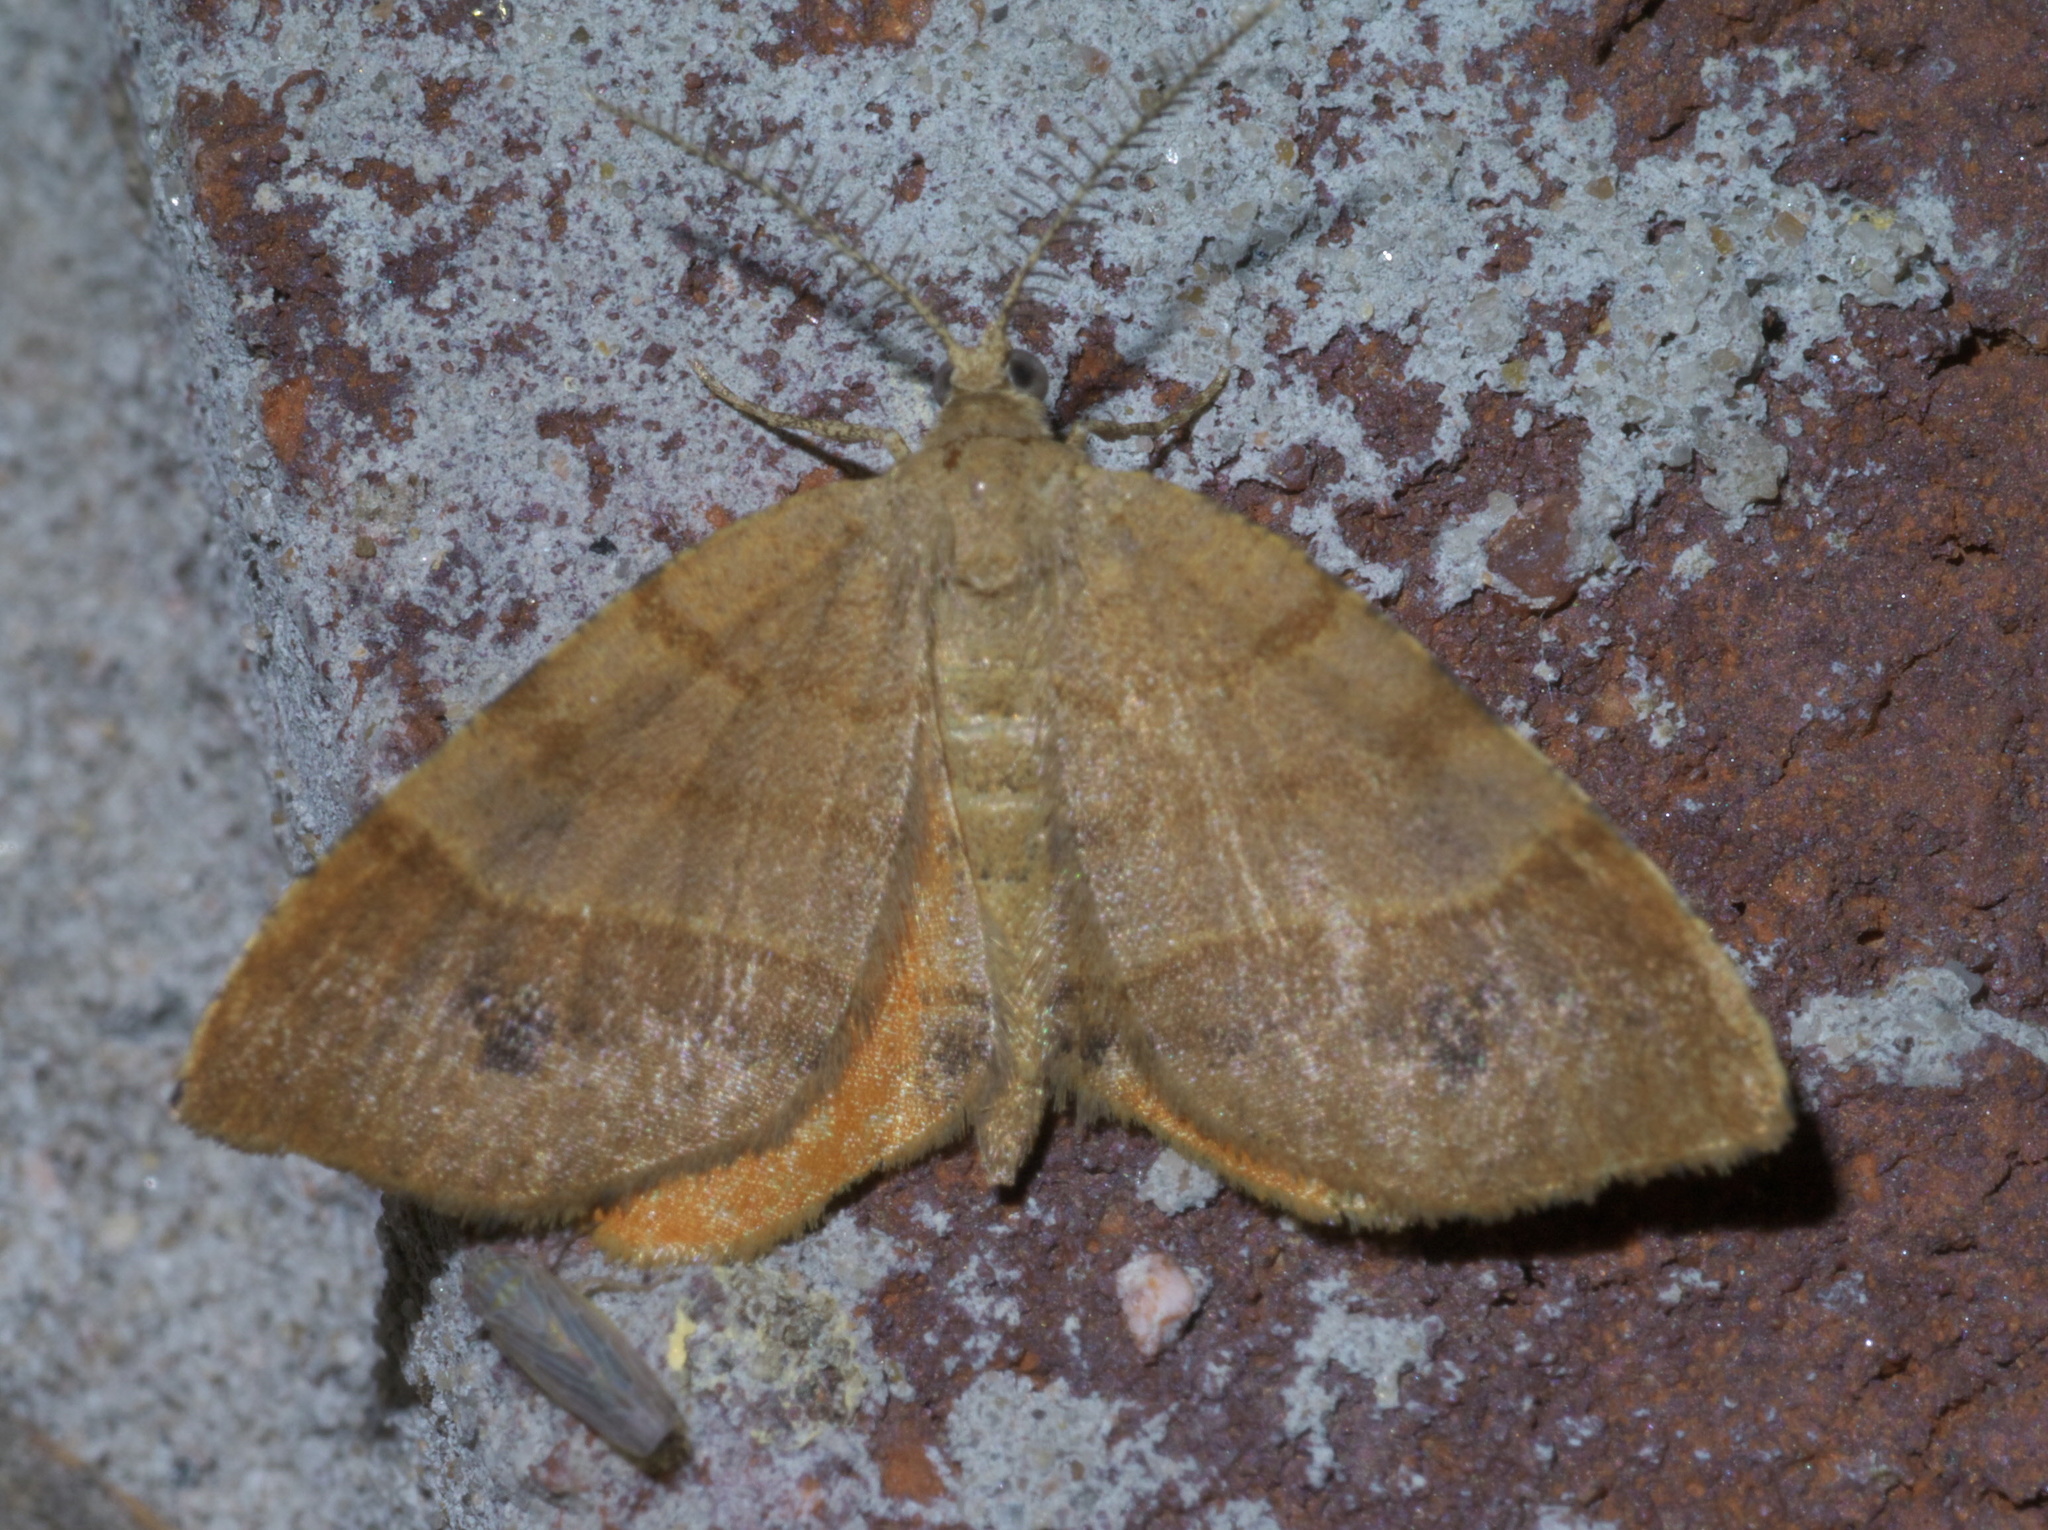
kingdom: Animalia
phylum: Arthropoda
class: Insecta
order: Lepidoptera
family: Geometridae
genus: Mellilla
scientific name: Mellilla xanthometata
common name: Orange wing moth
